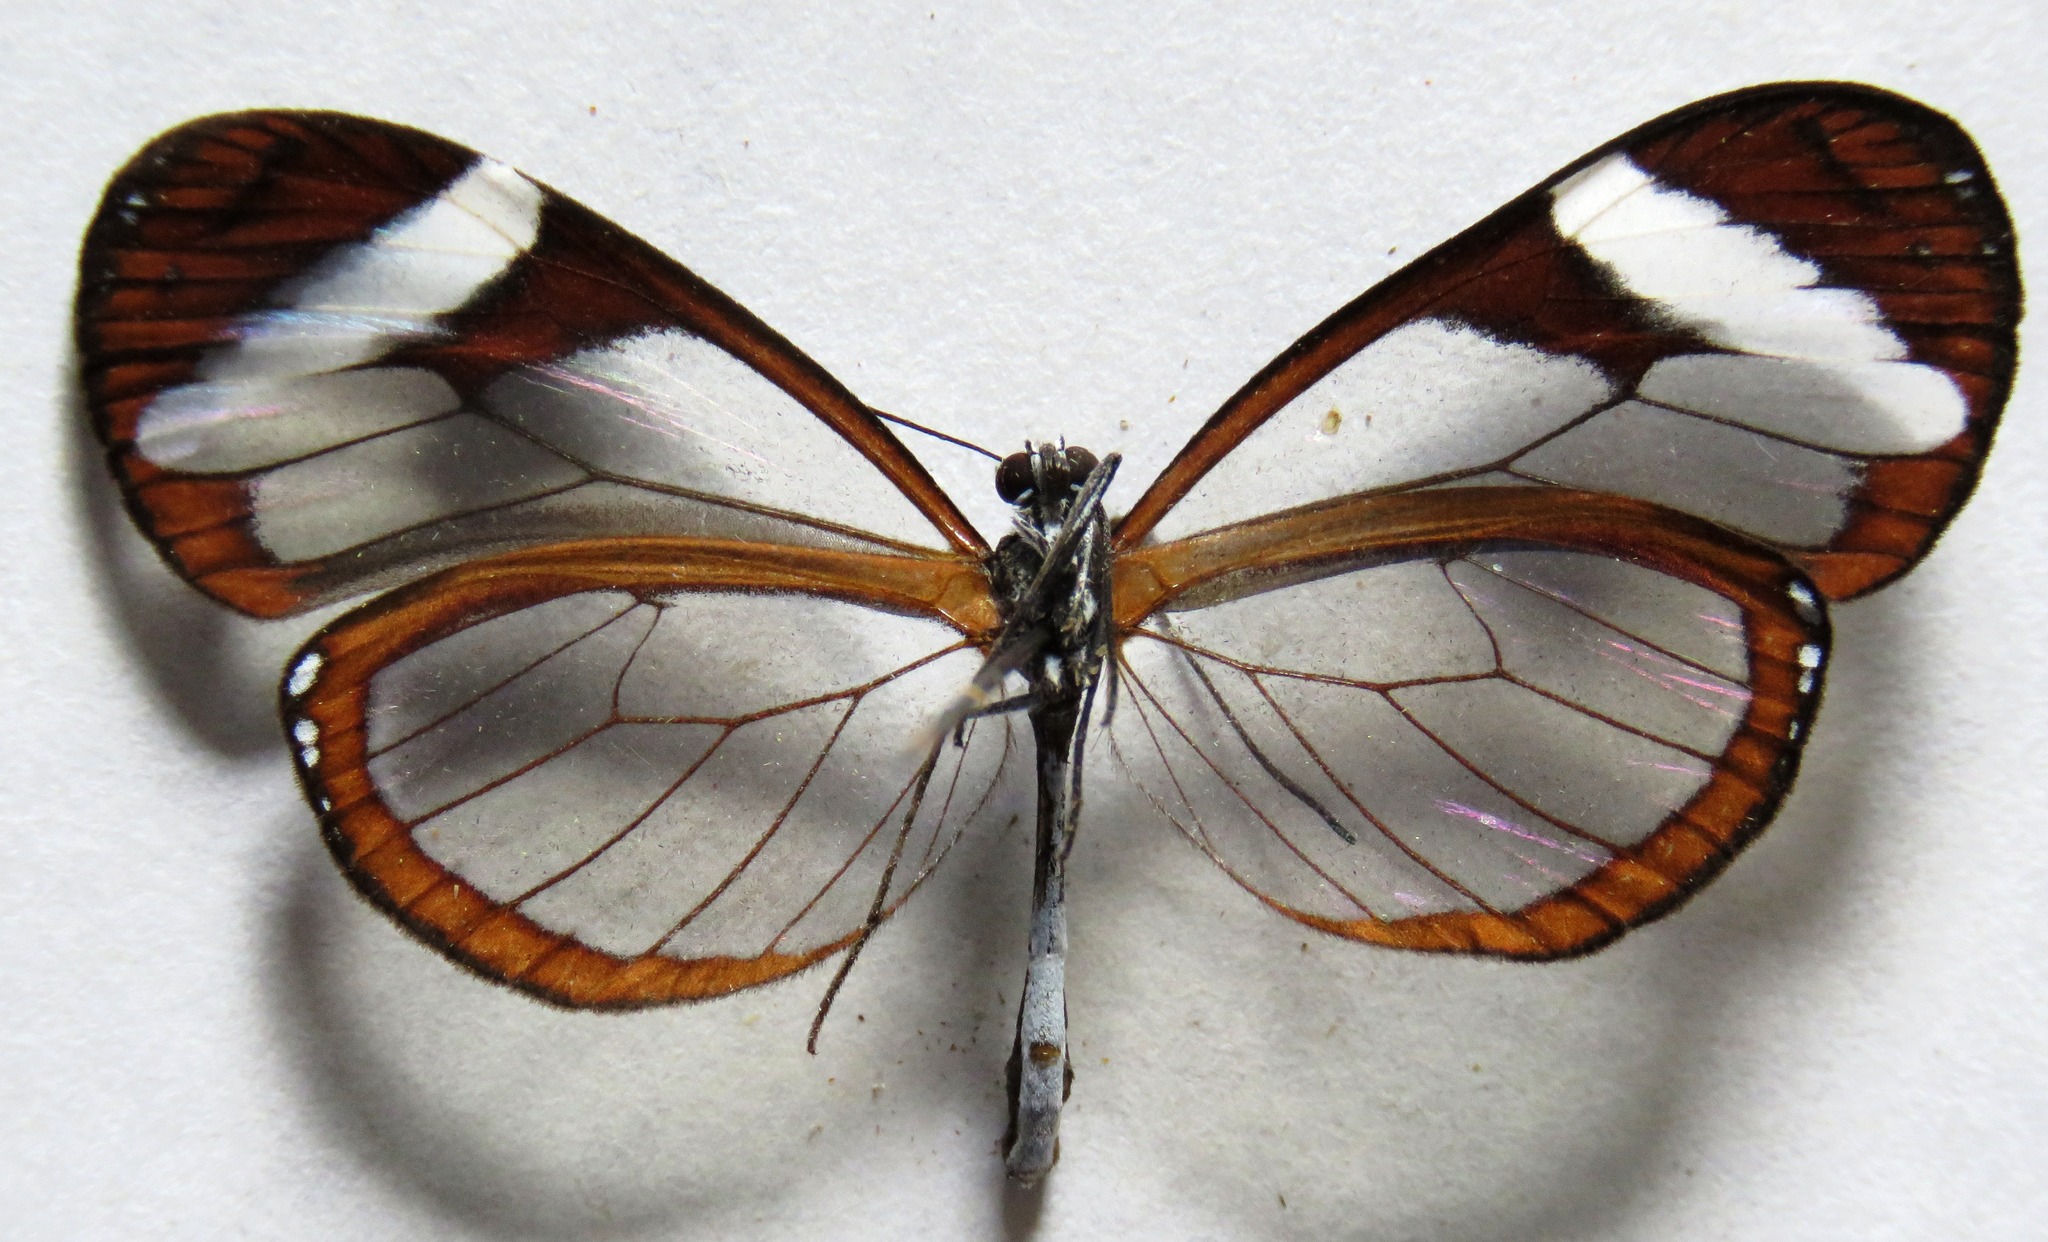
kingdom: Animalia
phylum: Arthropoda
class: Insecta
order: Lepidoptera
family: Nymphalidae
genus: Oleria
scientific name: Oleria paula
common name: Paula's clearwing
